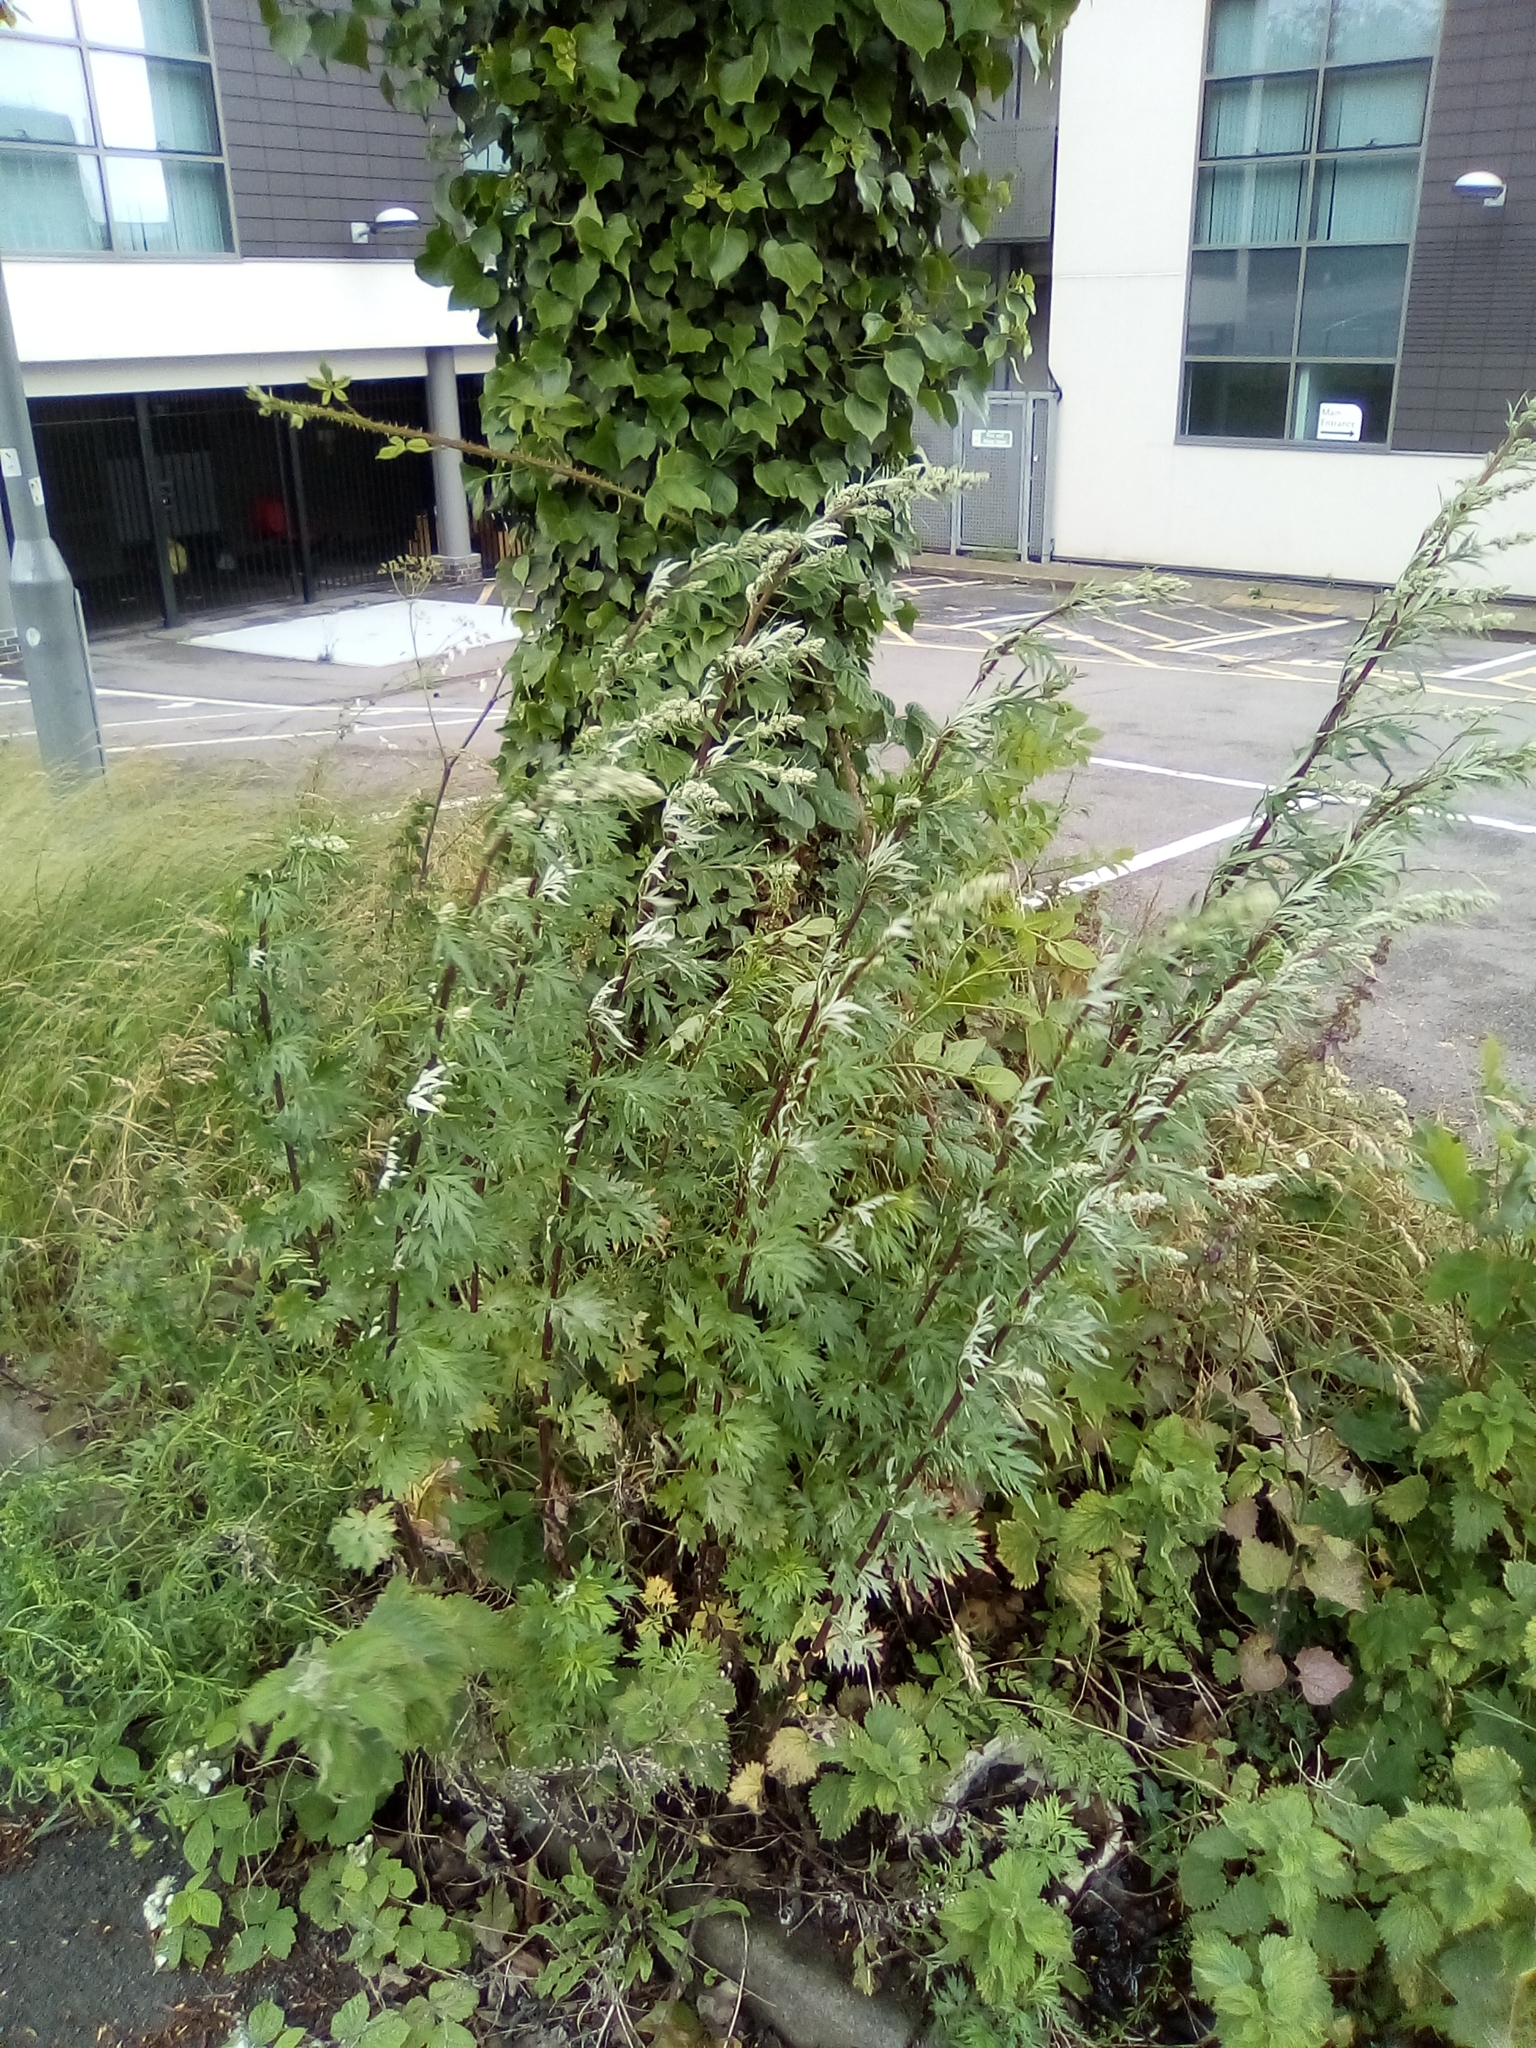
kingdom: Plantae
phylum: Tracheophyta
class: Magnoliopsida
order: Asterales
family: Asteraceae
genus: Artemisia
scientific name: Artemisia vulgaris
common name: Mugwort
